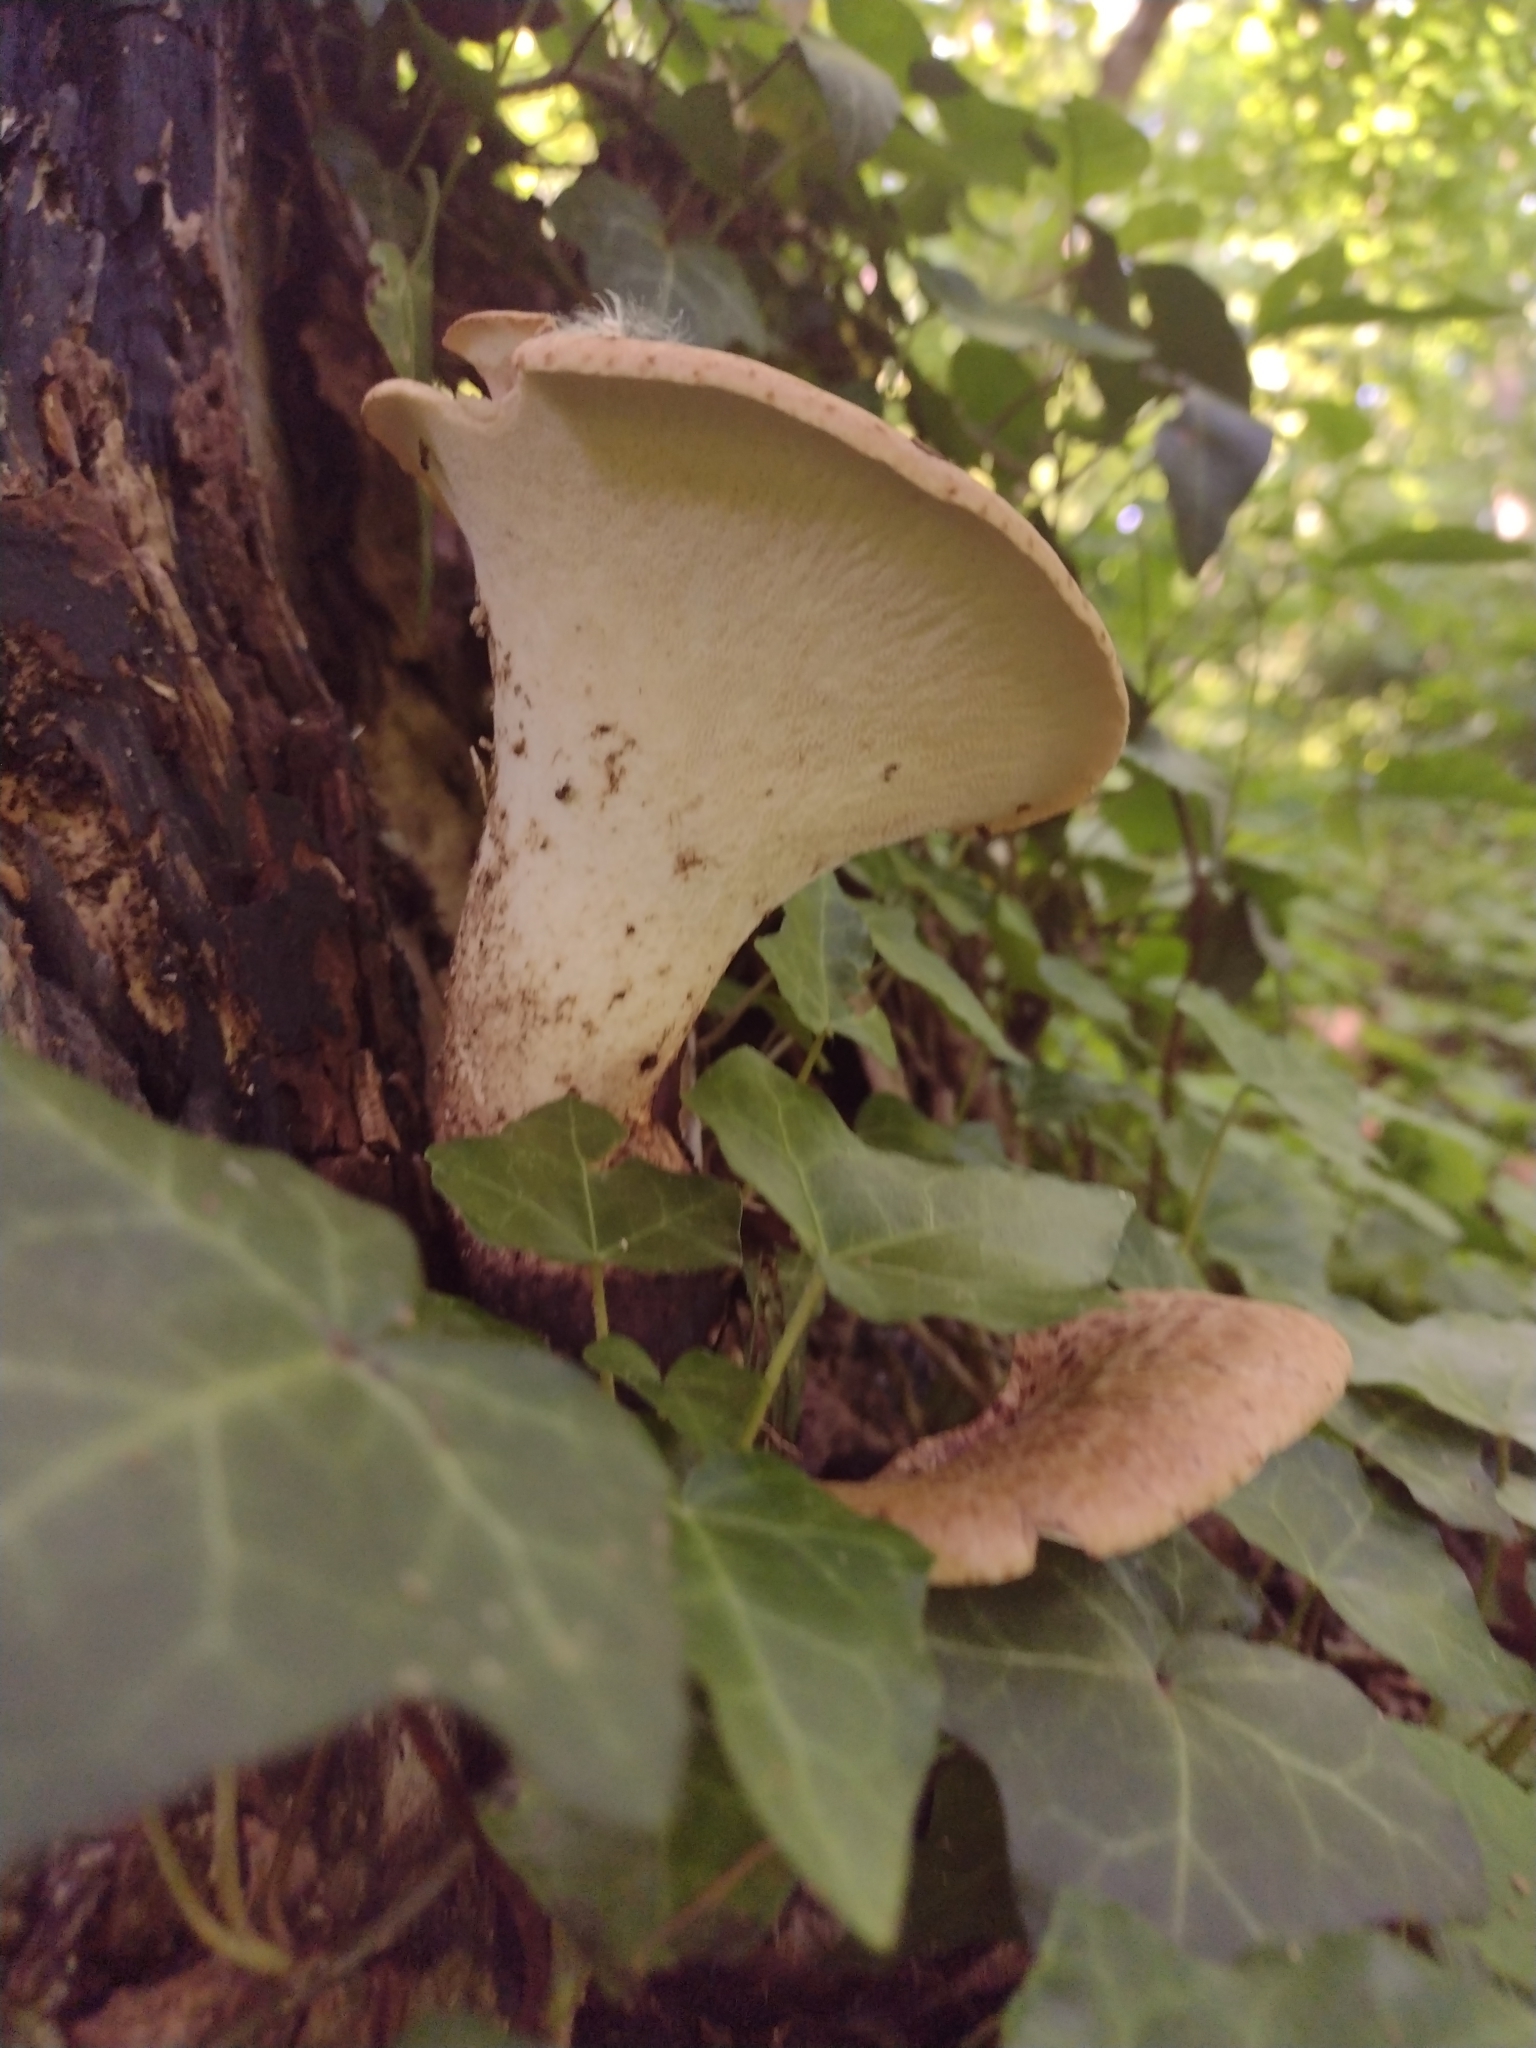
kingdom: Fungi
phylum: Basidiomycota
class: Agaricomycetes
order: Polyporales
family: Polyporaceae
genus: Cerioporus
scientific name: Cerioporus squamosus
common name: Dryad's saddle
